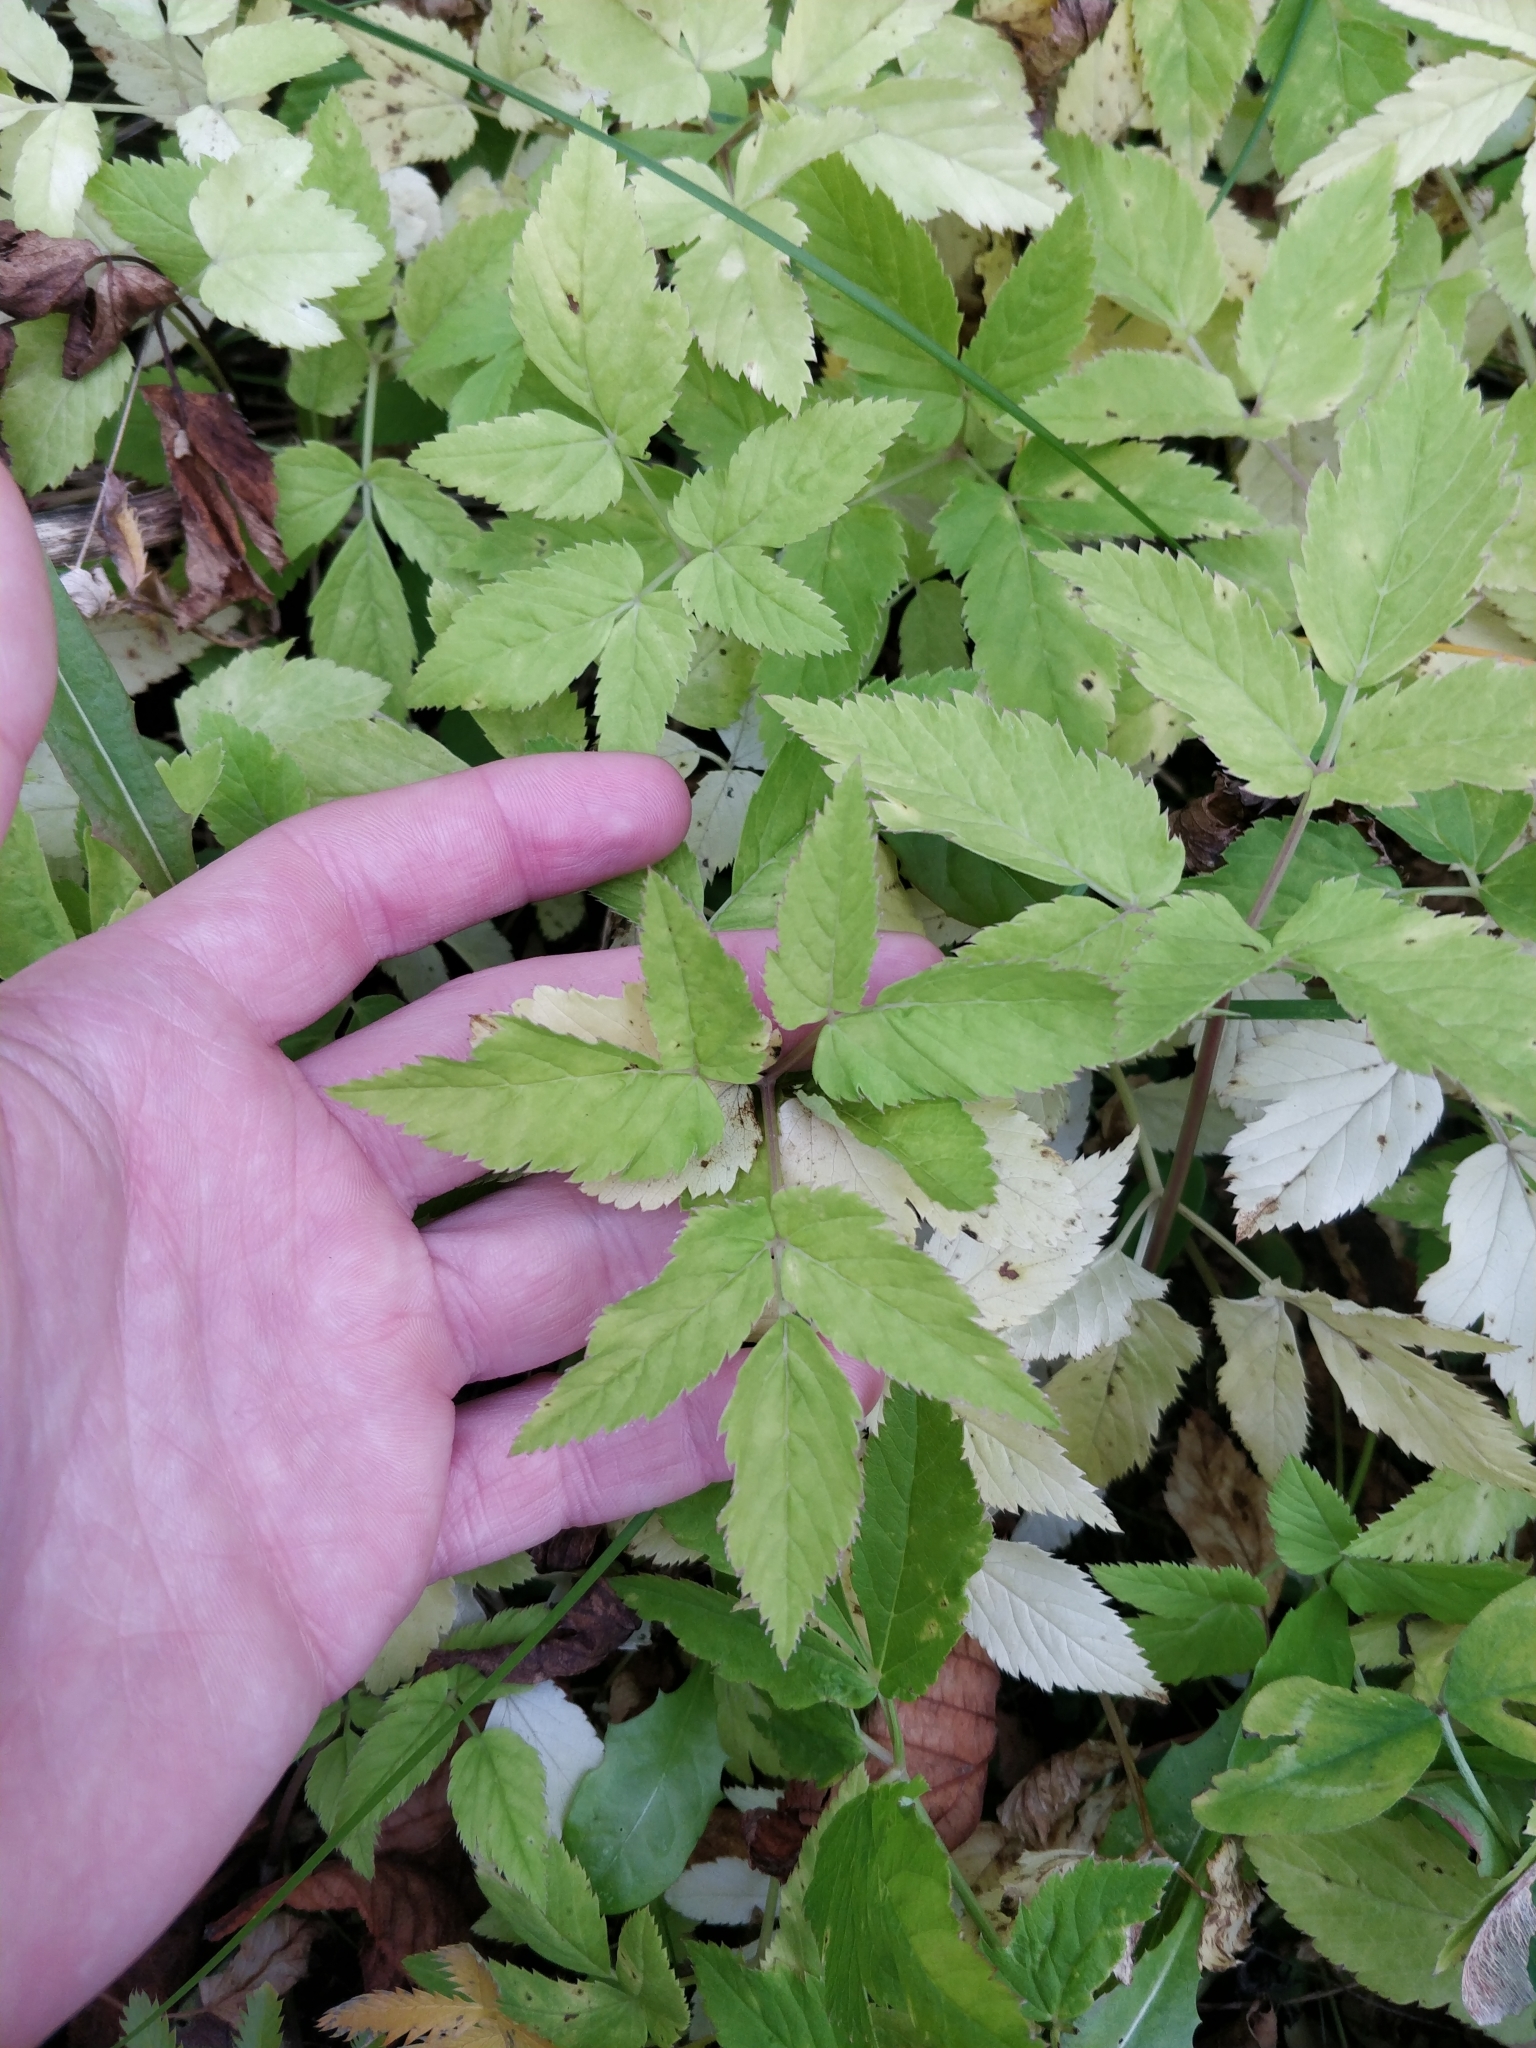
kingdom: Plantae
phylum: Tracheophyta
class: Magnoliopsida
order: Apiales
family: Apiaceae
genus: Aegopodium
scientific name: Aegopodium podagraria
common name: Ground-elder
